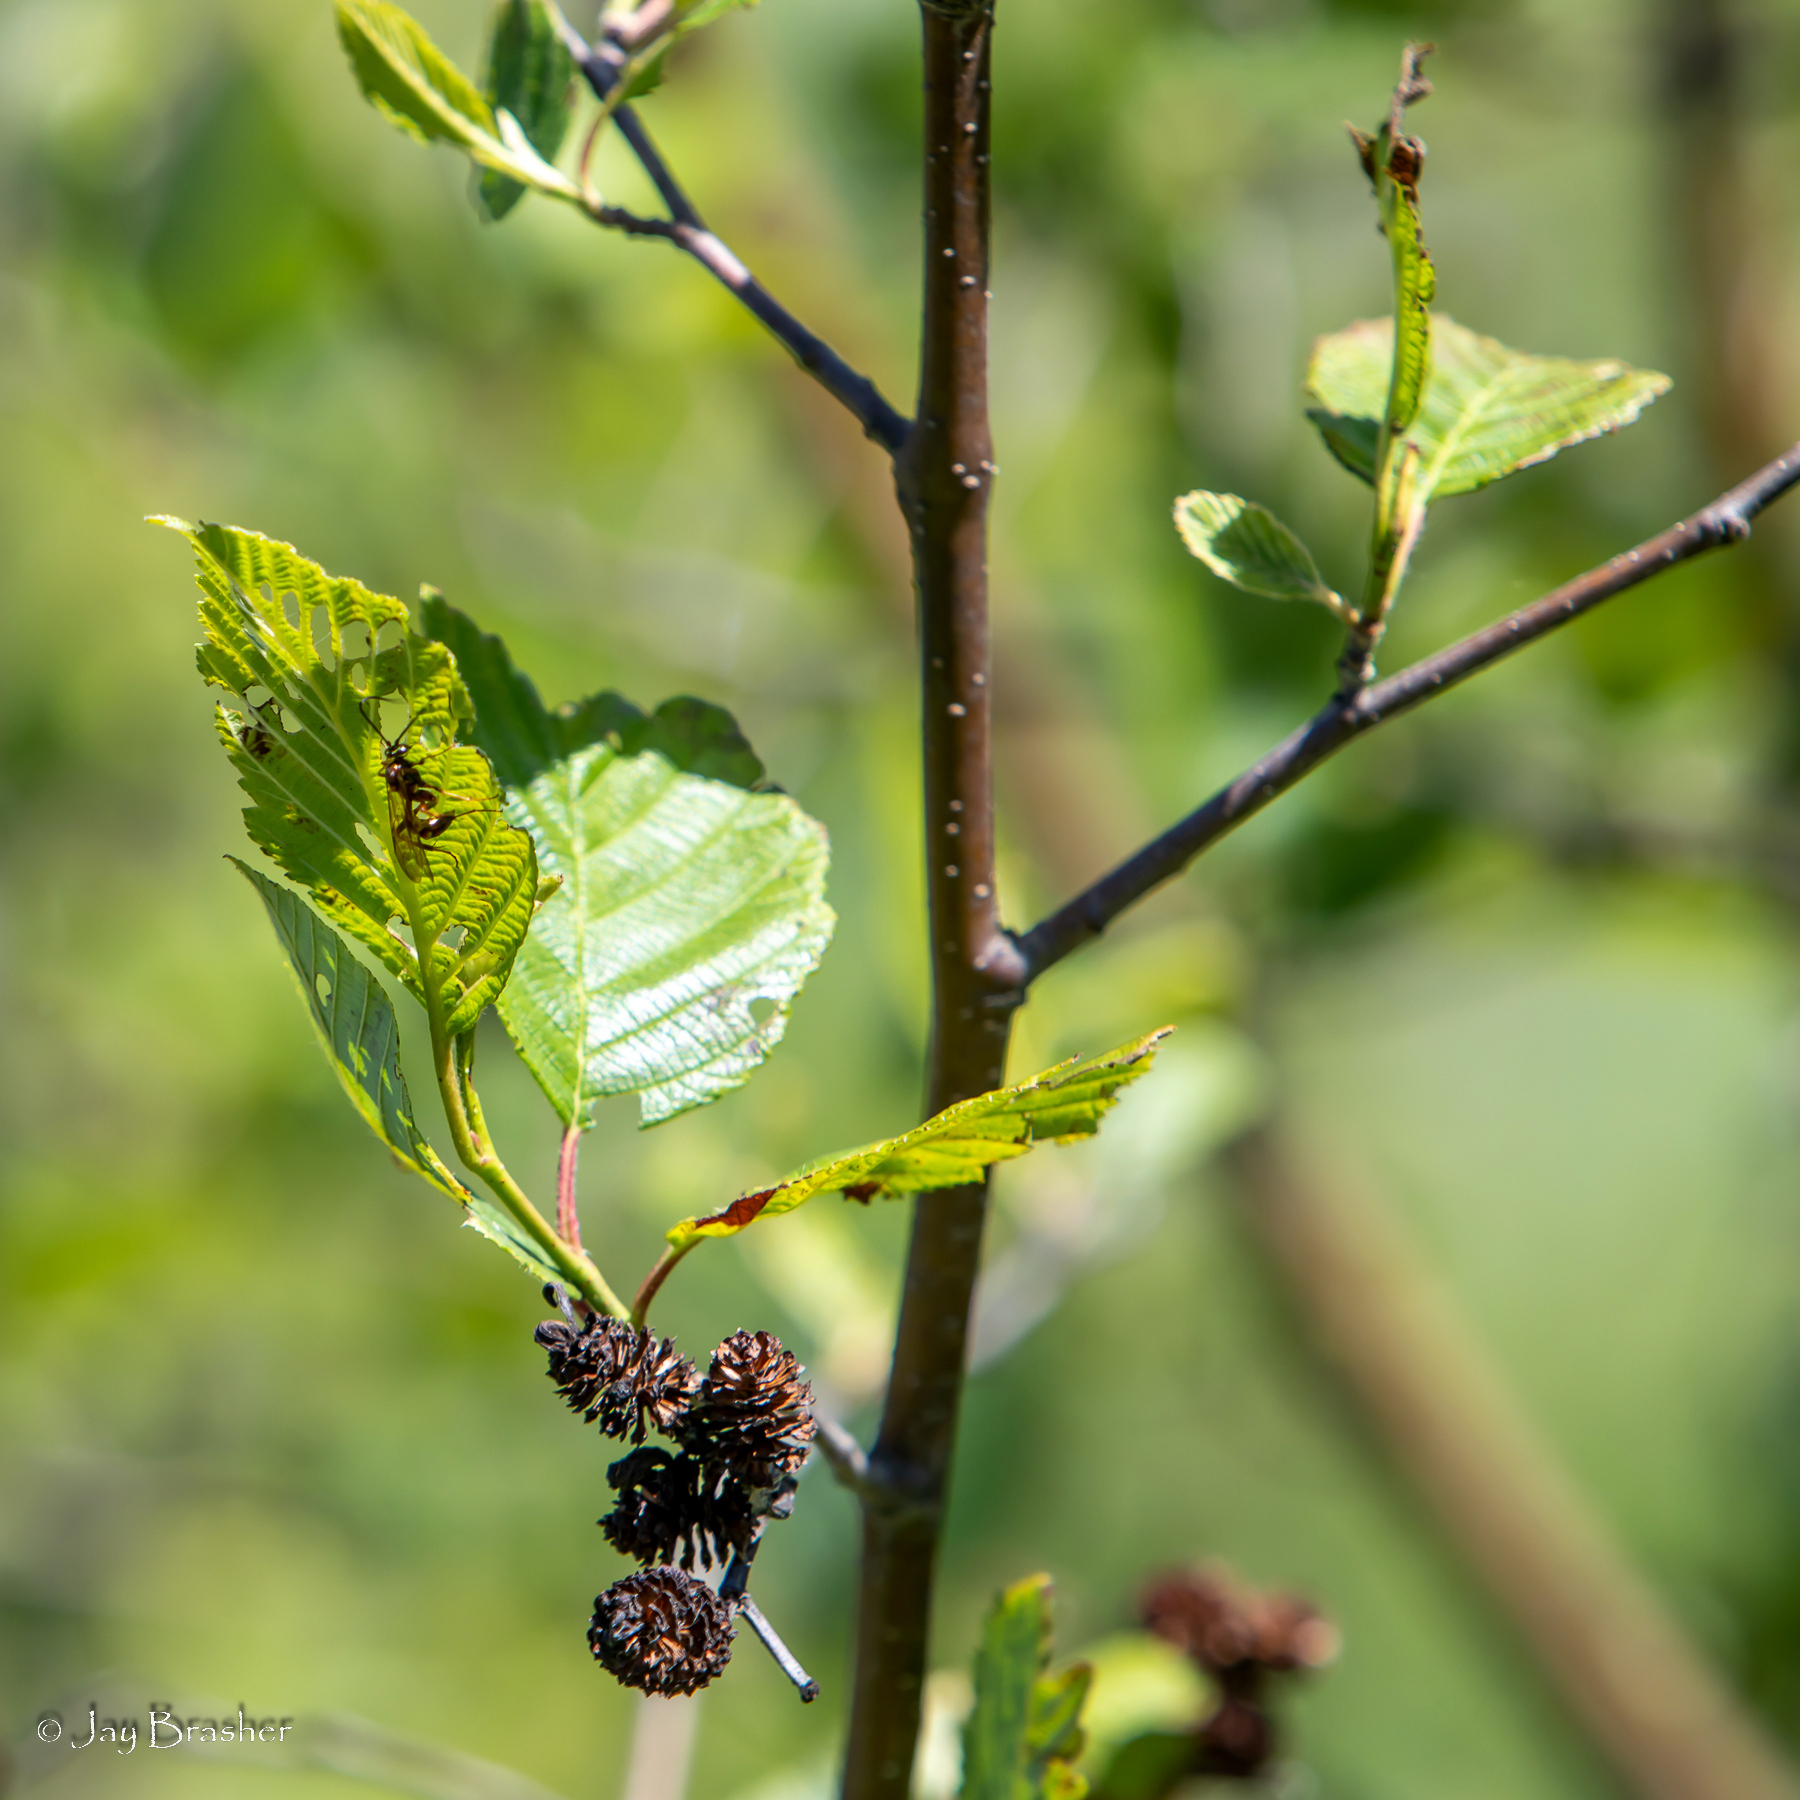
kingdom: Plantae
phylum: Tracheophyta
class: Magnoliopsida
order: Fagales
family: Betulaceae
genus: Alnus
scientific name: Alnus incana
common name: Grey alder
